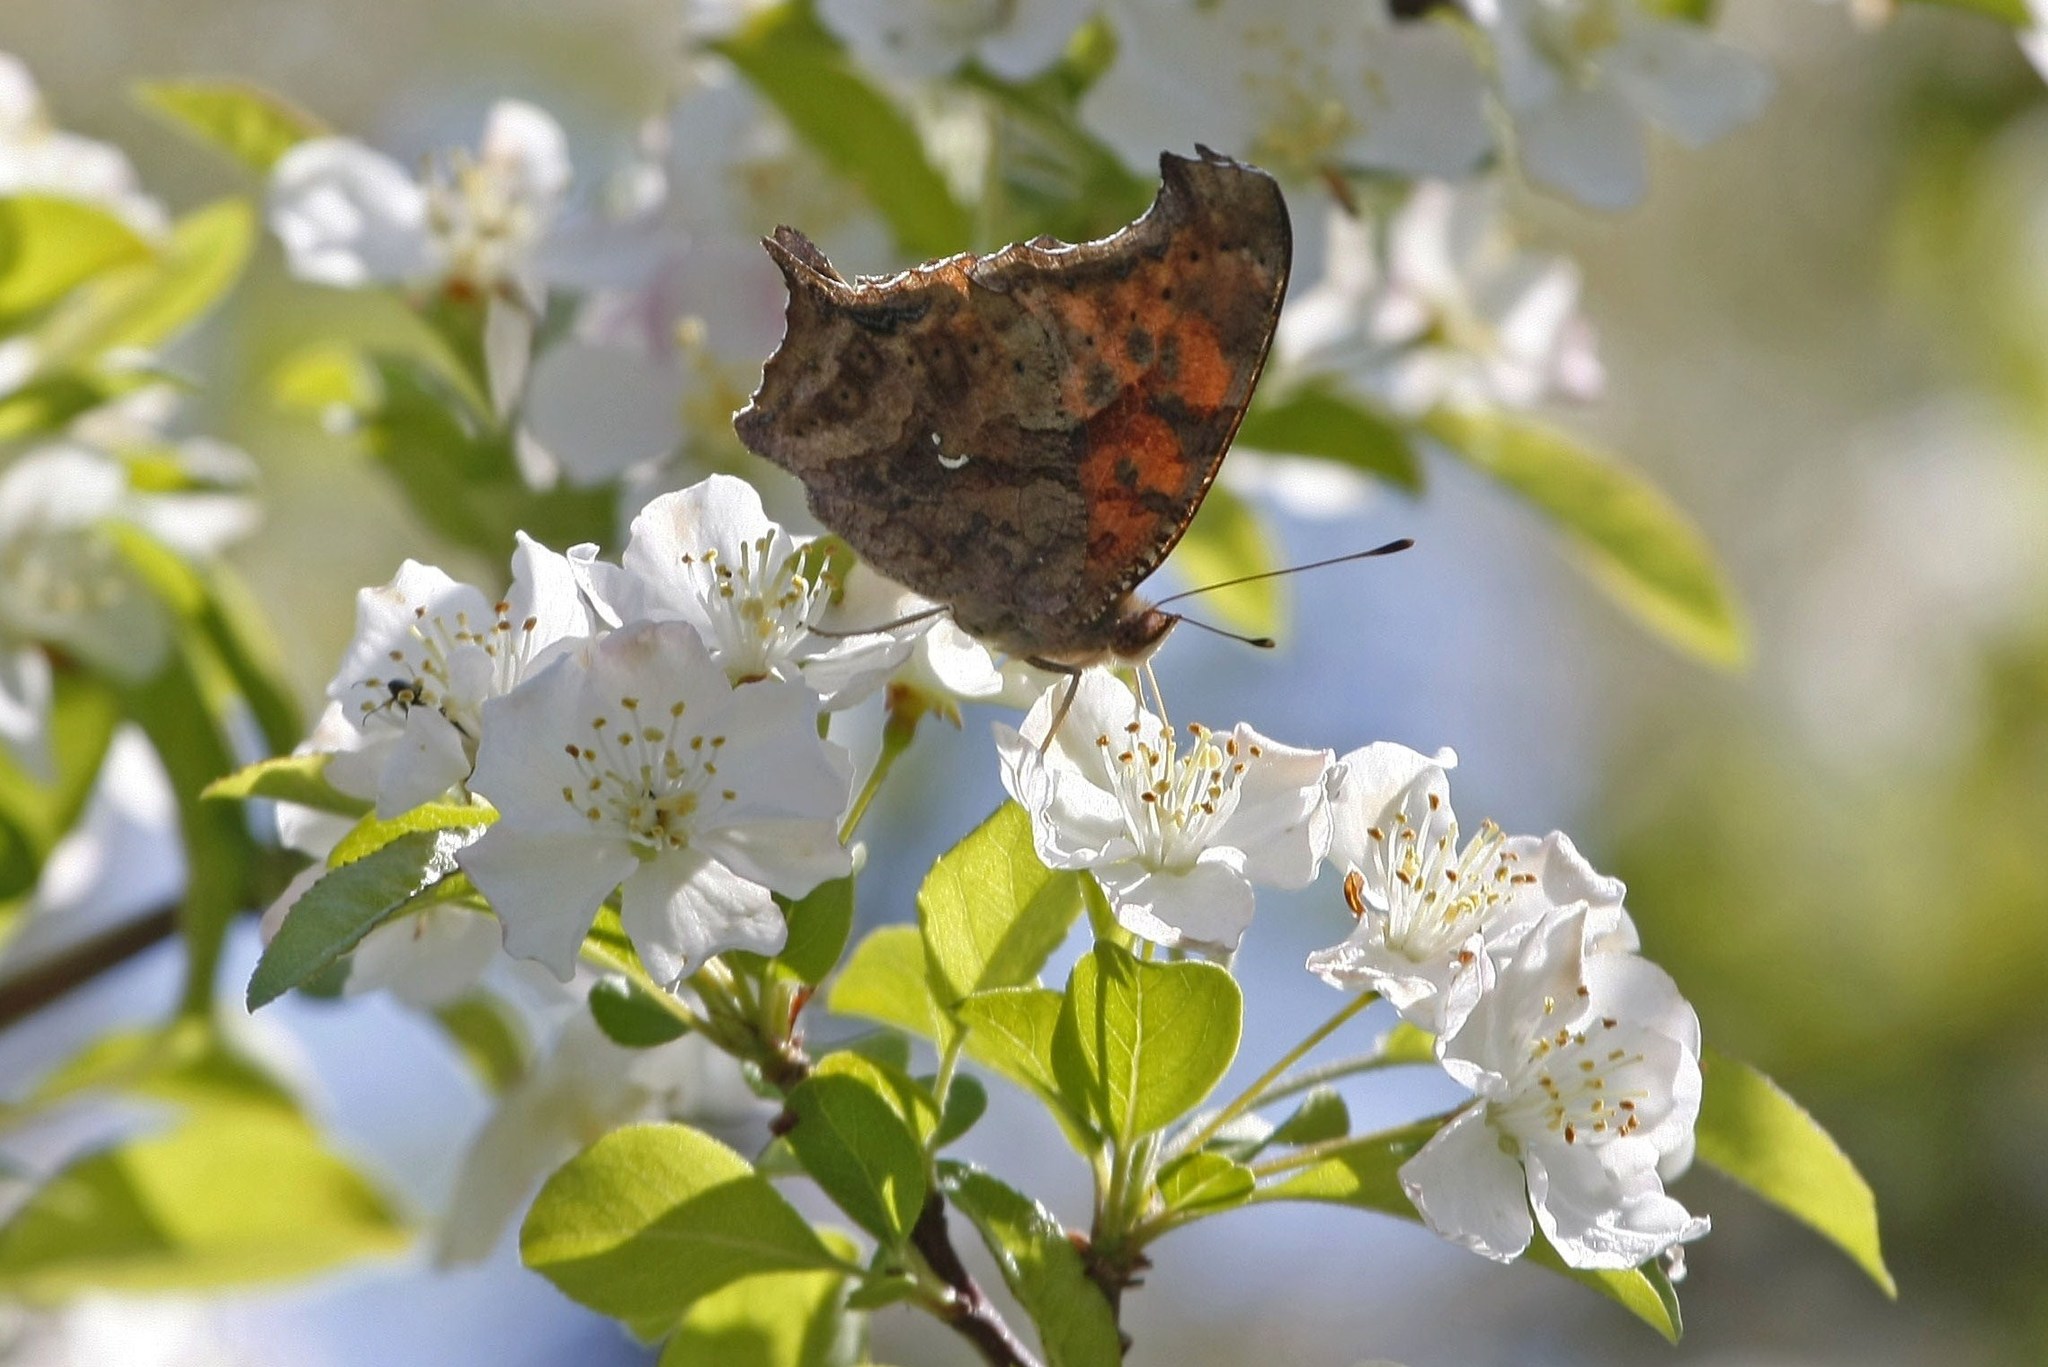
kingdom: Animalia
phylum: Arthropoda
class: Insecta
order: Lepidoptera
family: Nymphalidae
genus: Polygonia
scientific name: Polygonia interrogationis
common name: Question mark
